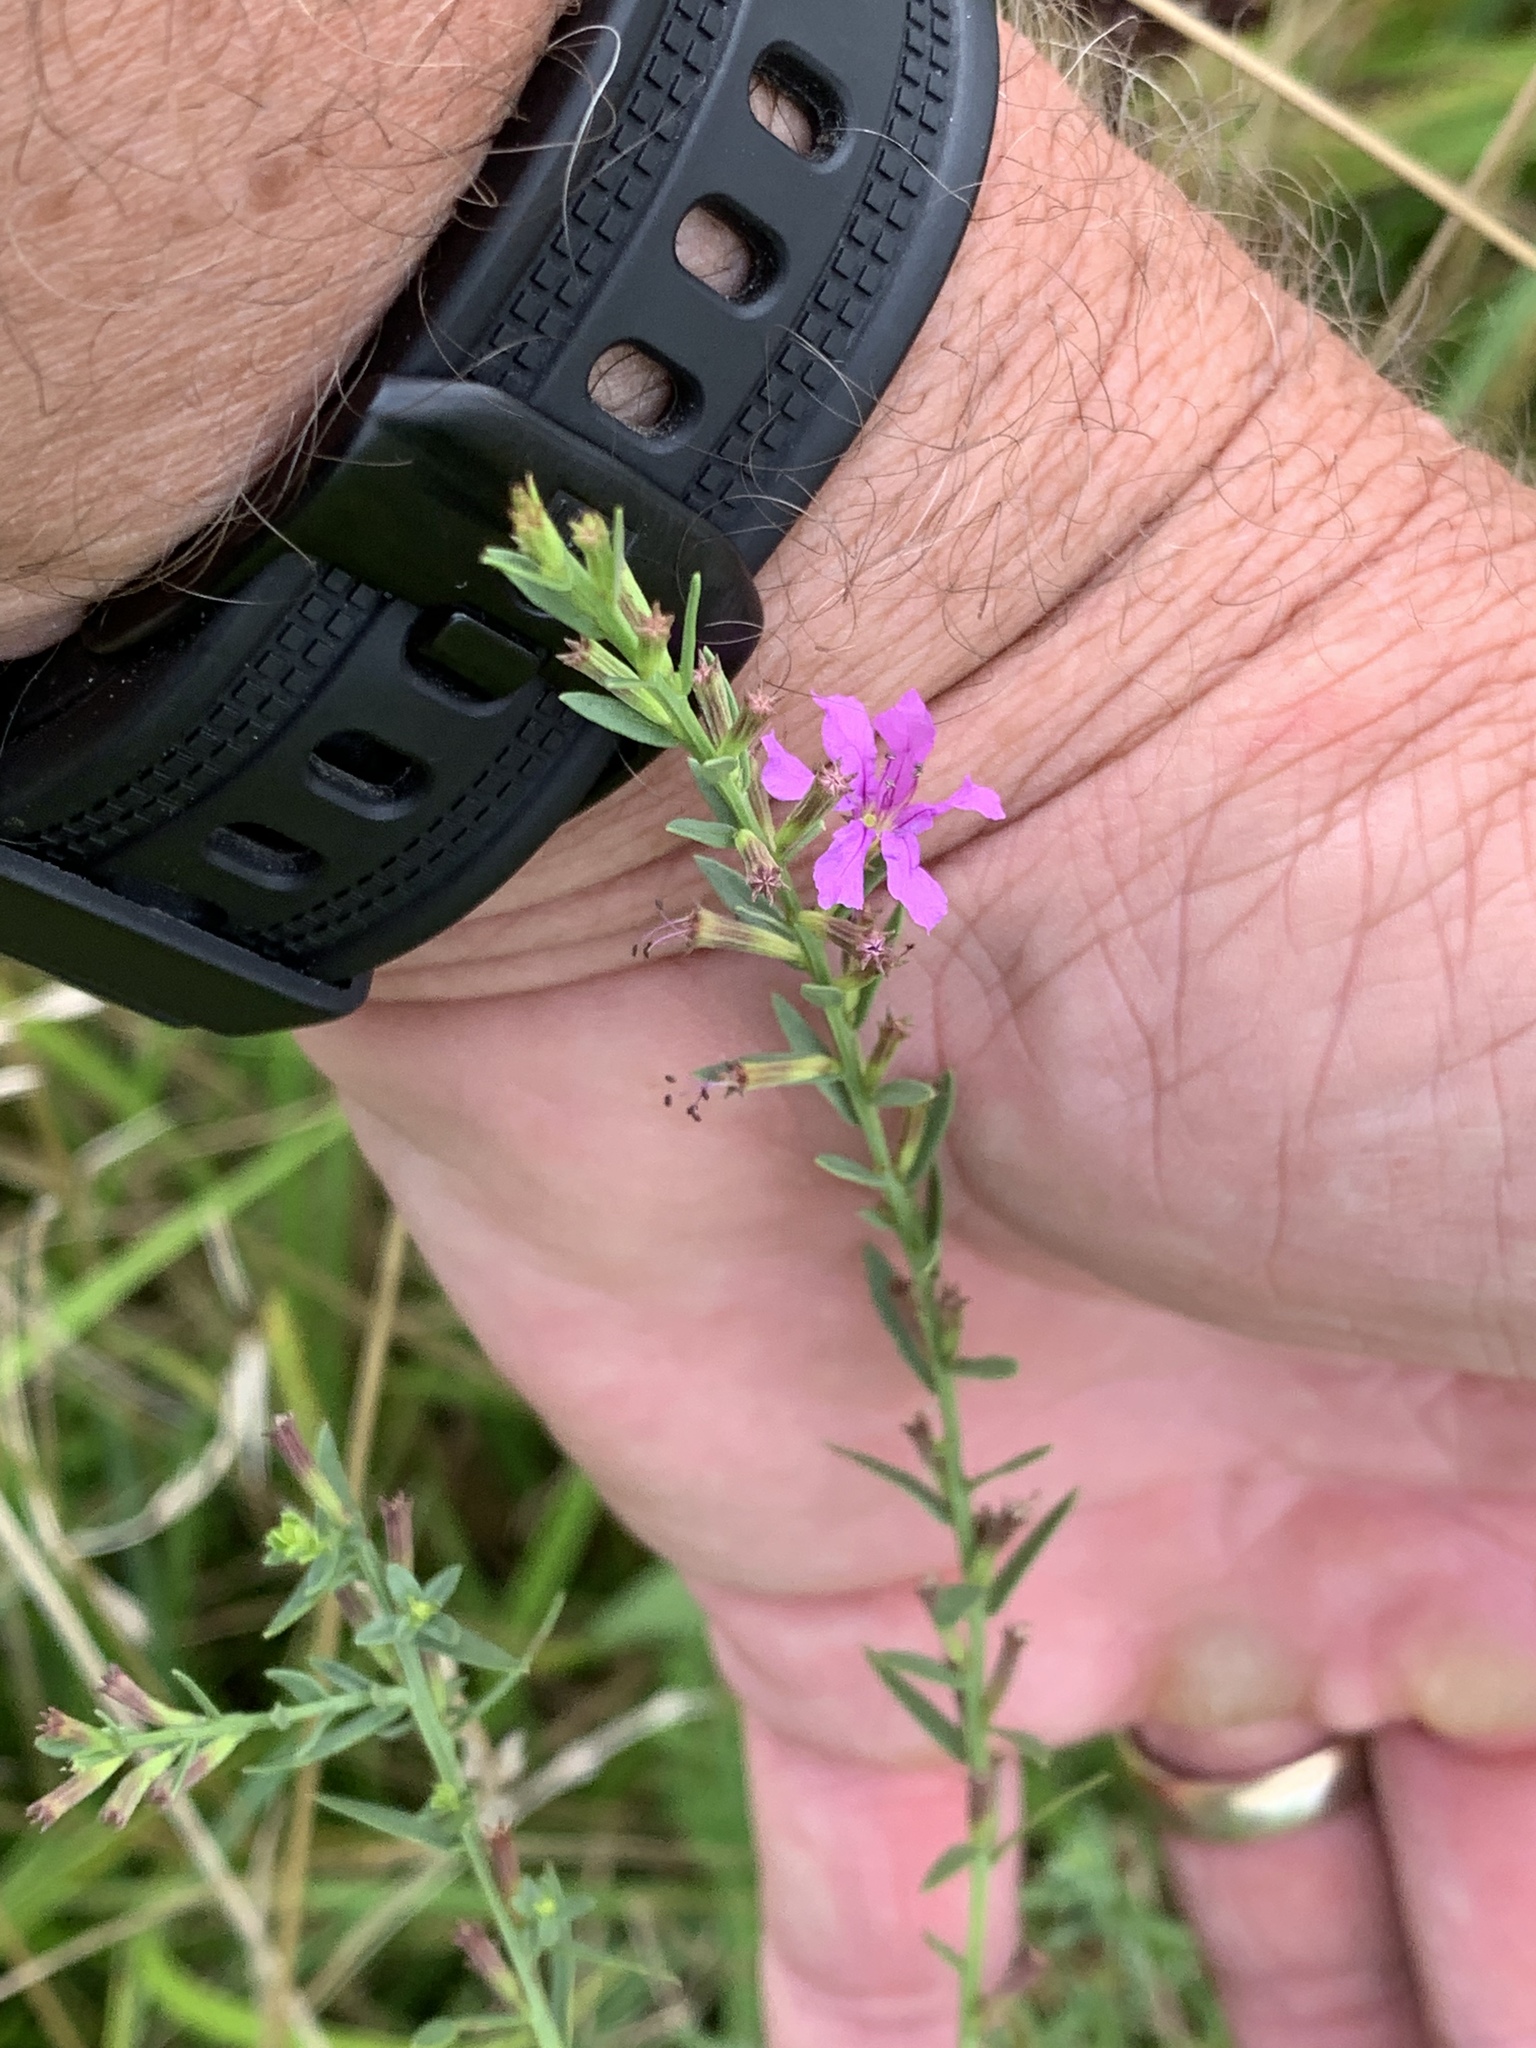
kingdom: Plantae
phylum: Tracheophyta
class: Magnoliopsida
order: Myrtales
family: Lythraceae
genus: Lythrum
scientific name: Lythrum alatum
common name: Winged loosestrife
